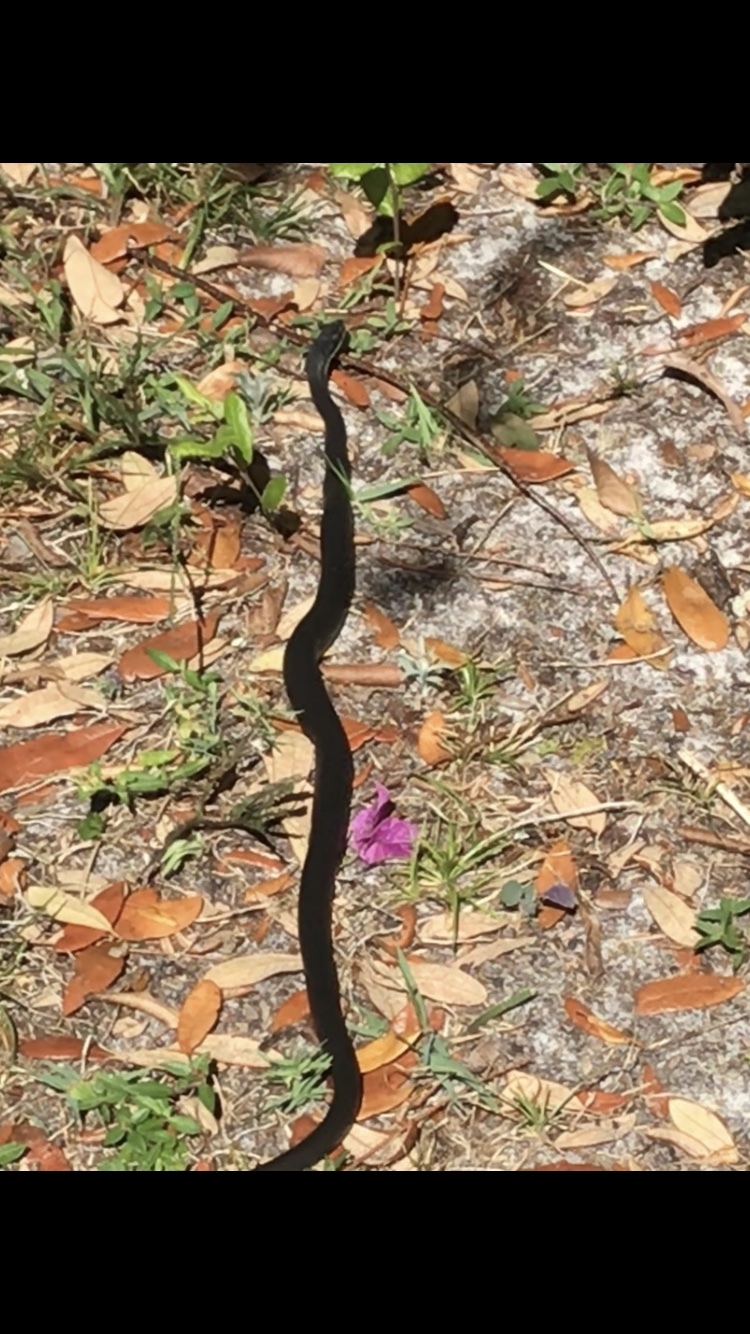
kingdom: Animalia
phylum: Chordata
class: Squamata
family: Colubridae
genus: Coluber
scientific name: Coluber constrictor
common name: Eastern racer
